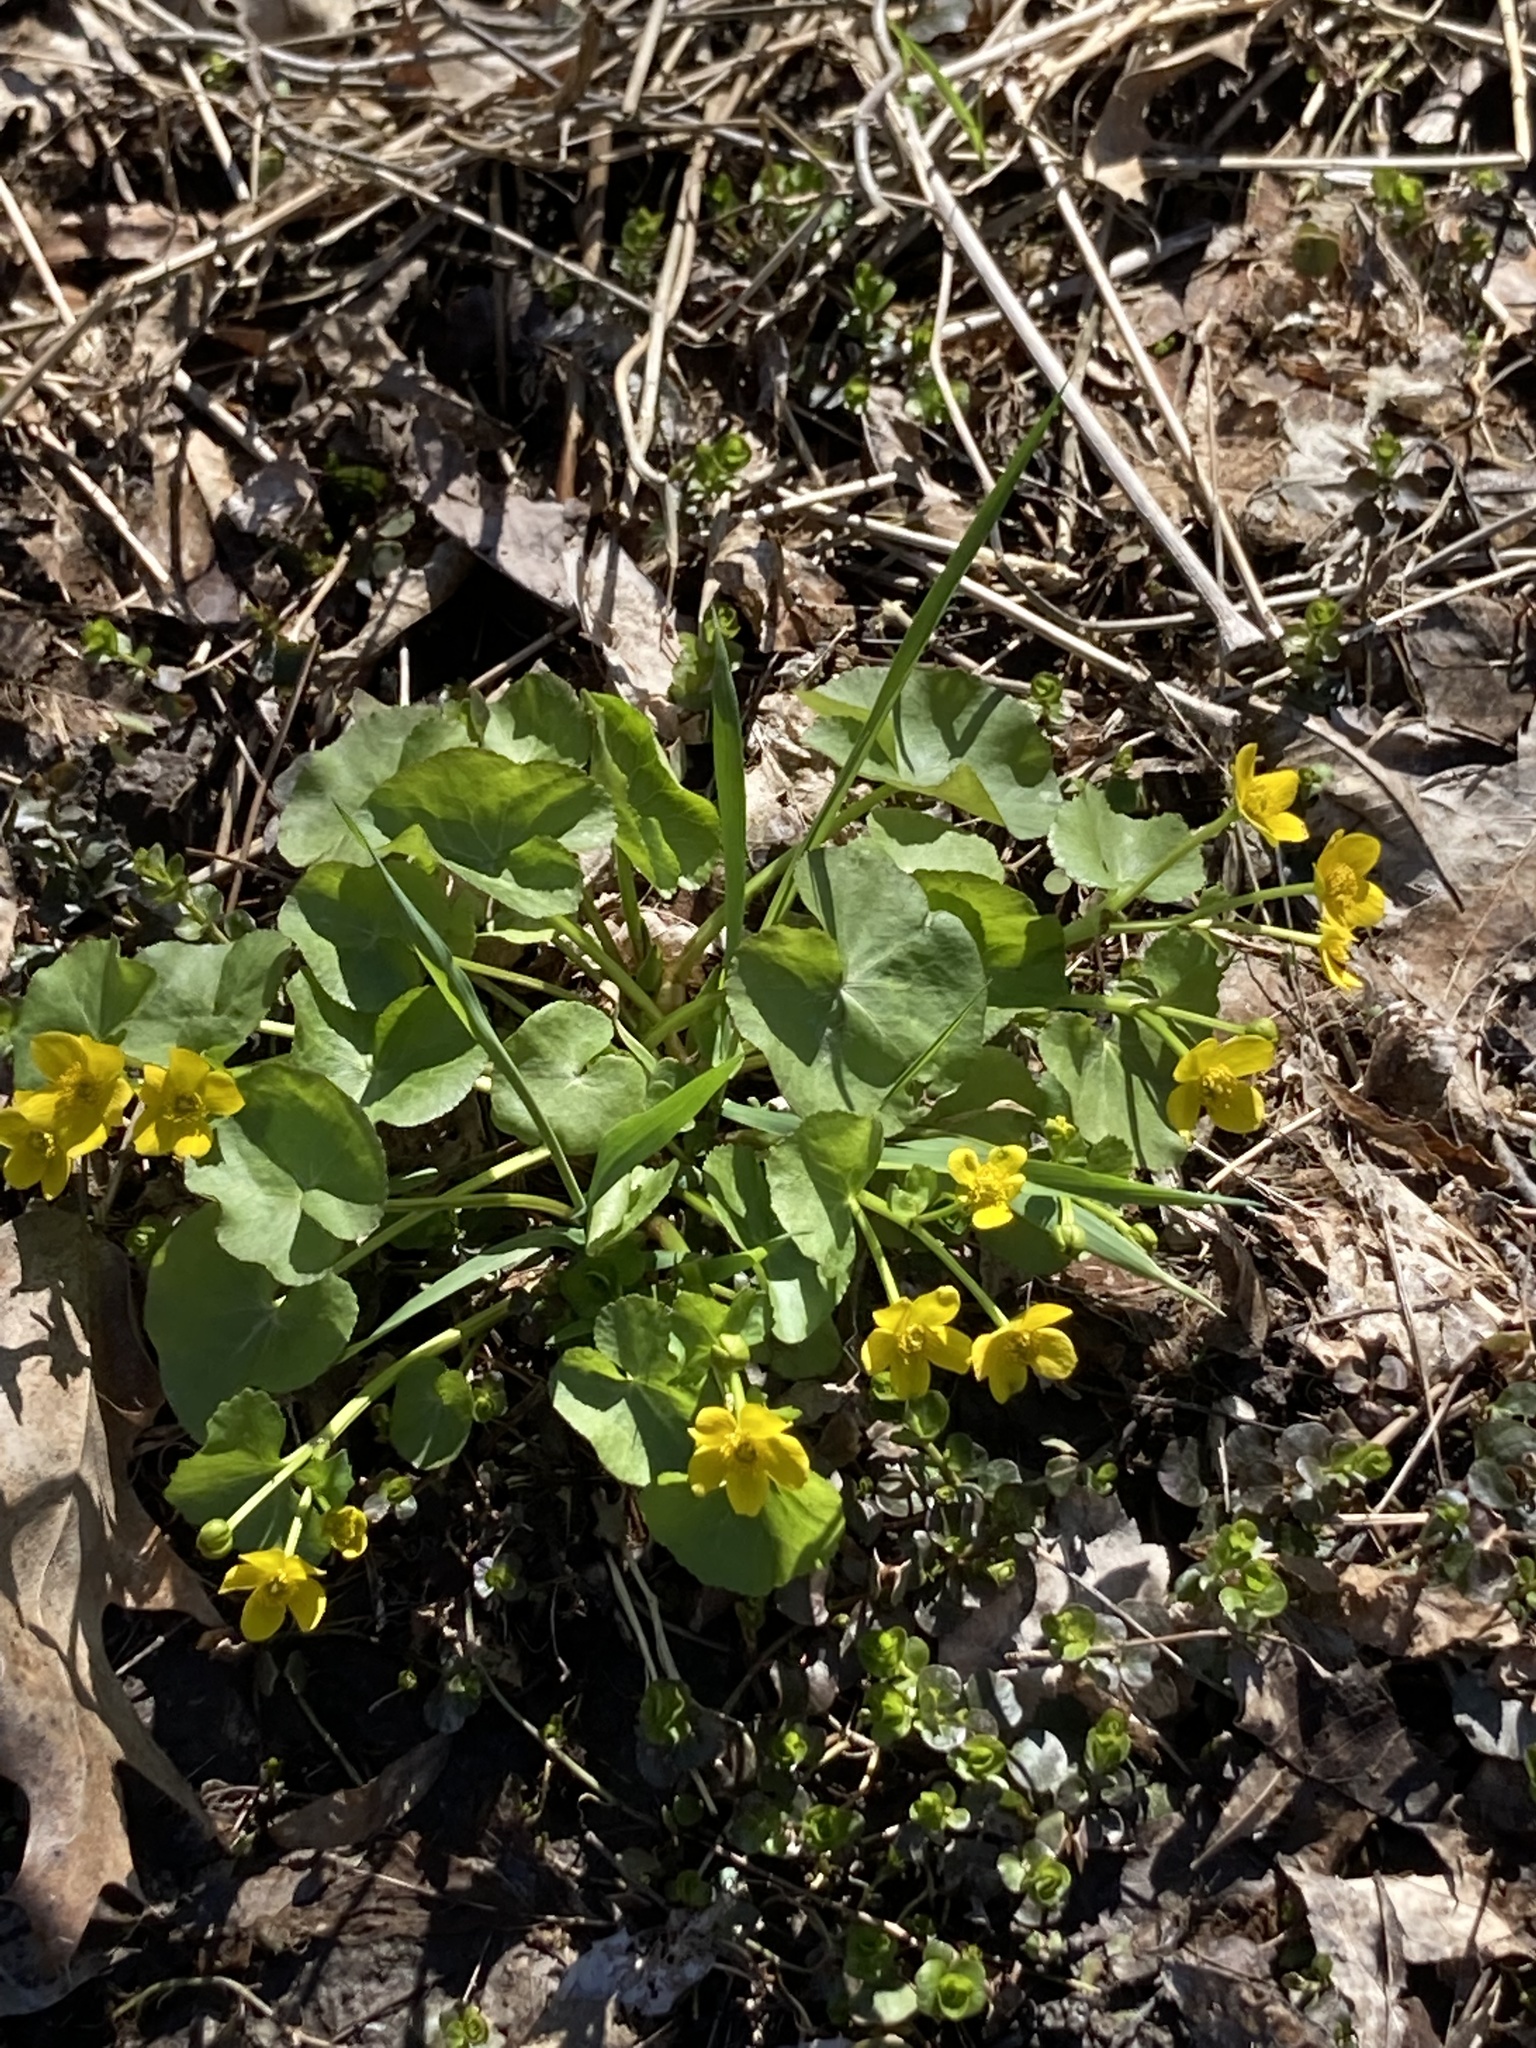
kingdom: Plantae
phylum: Tracheophyta
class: Magnoliopsida
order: Ranunculales
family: Ranunculaceae
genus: Caltha
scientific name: Caltha palustris
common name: Marsh marigold
